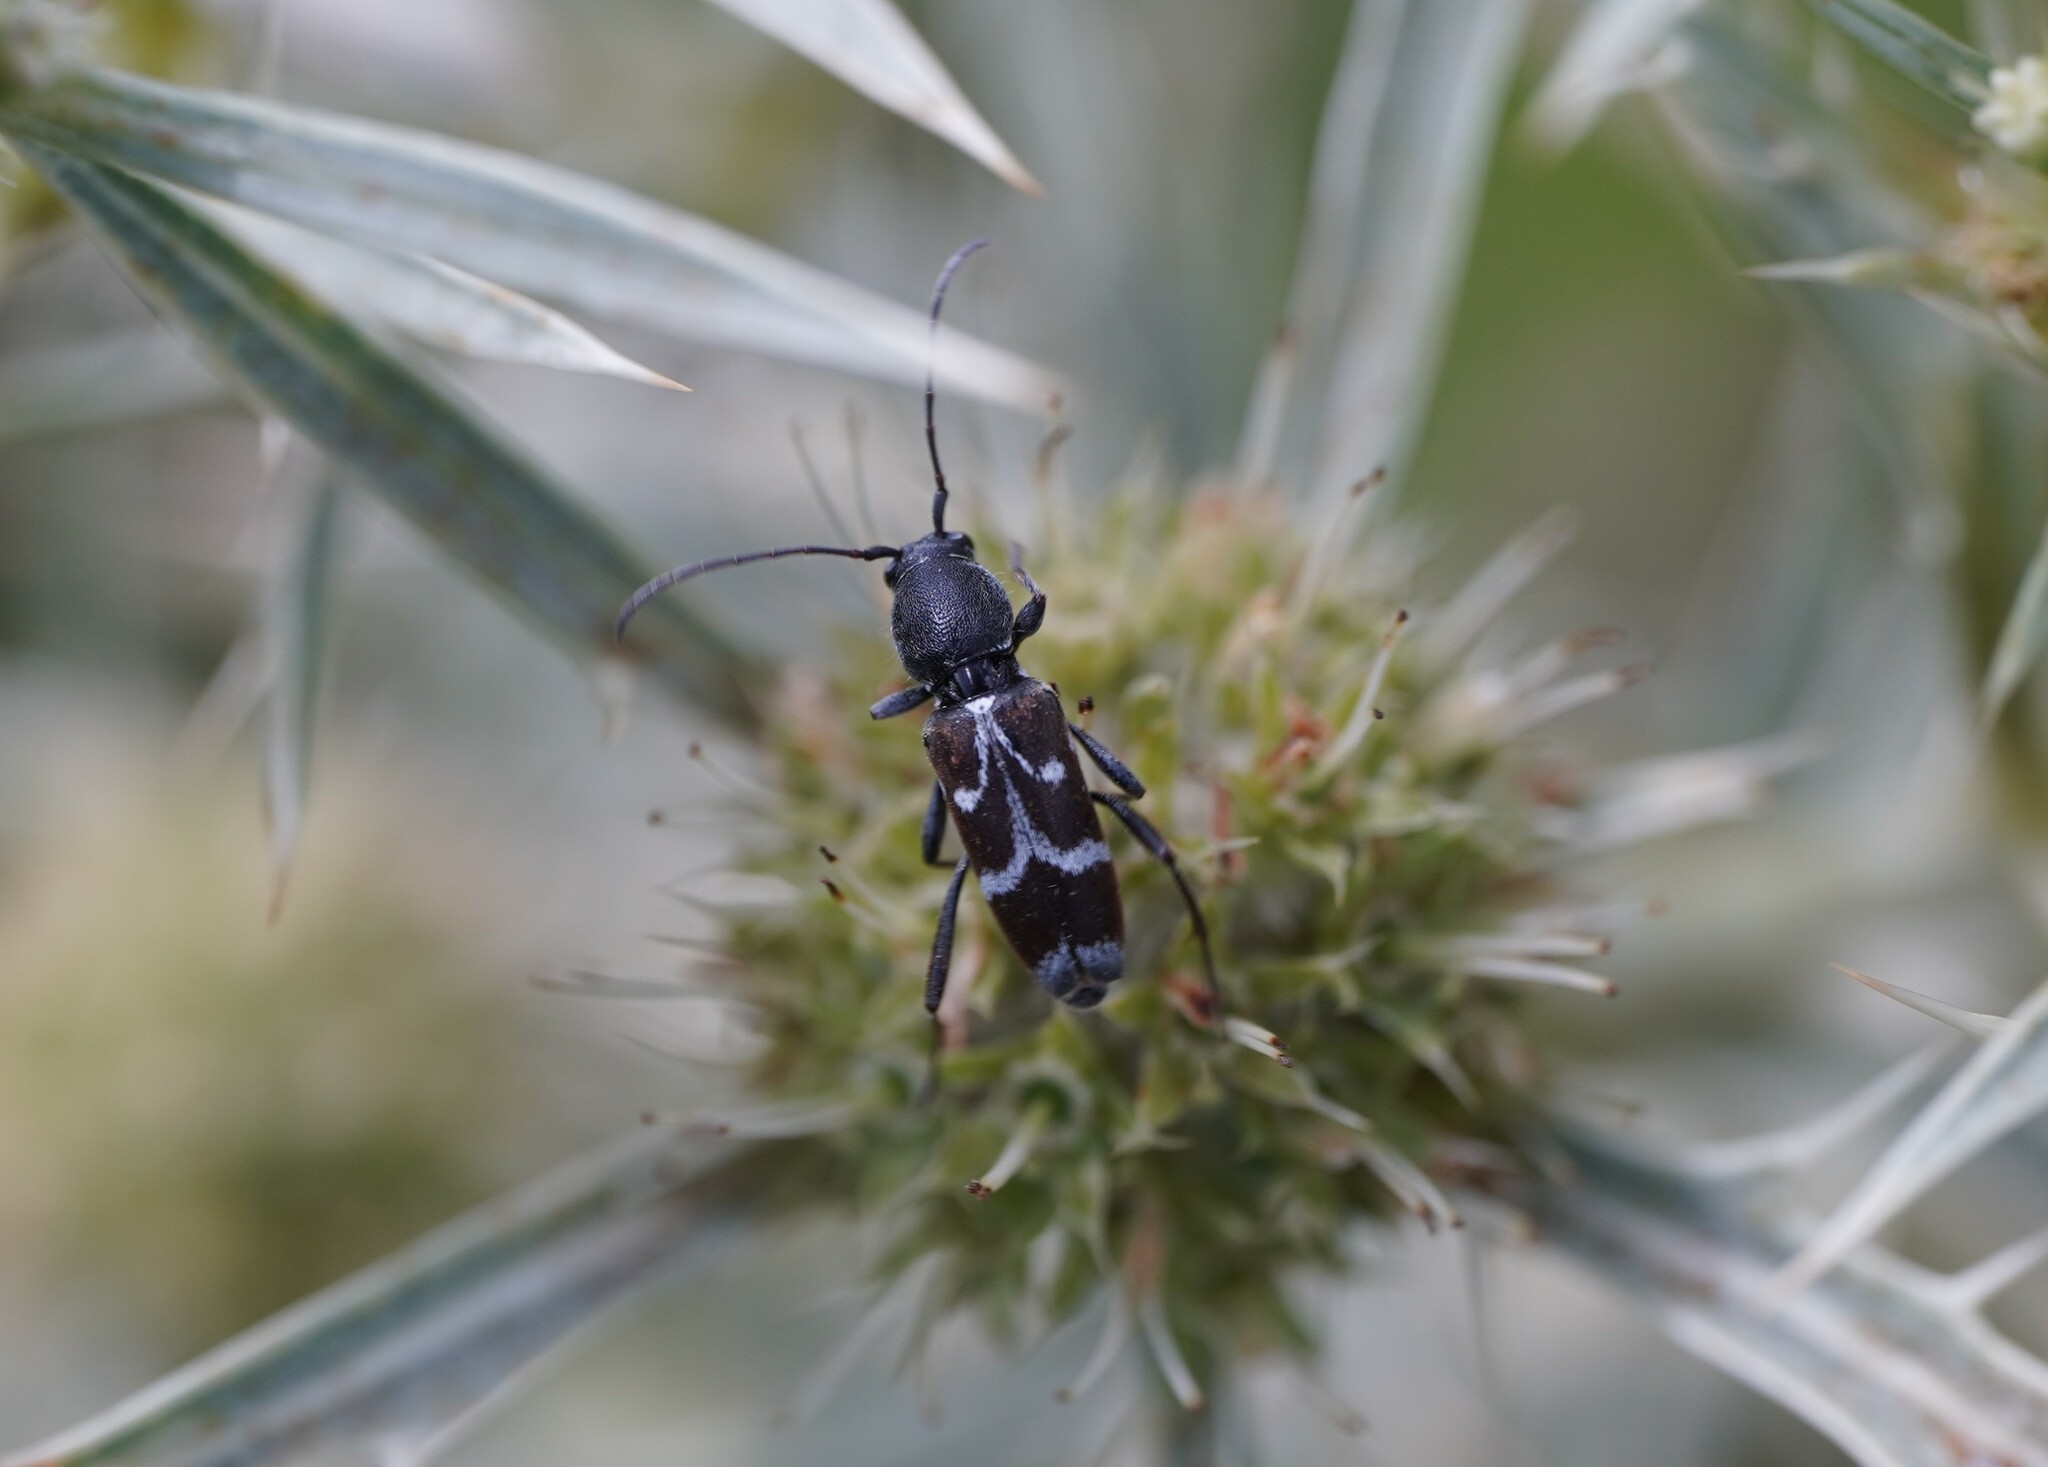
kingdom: Animalia
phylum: Arthropoda
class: Insecta
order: Coleoptera
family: Cerambycidae
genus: Chlorophorus
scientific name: Chlorophorus sartor
